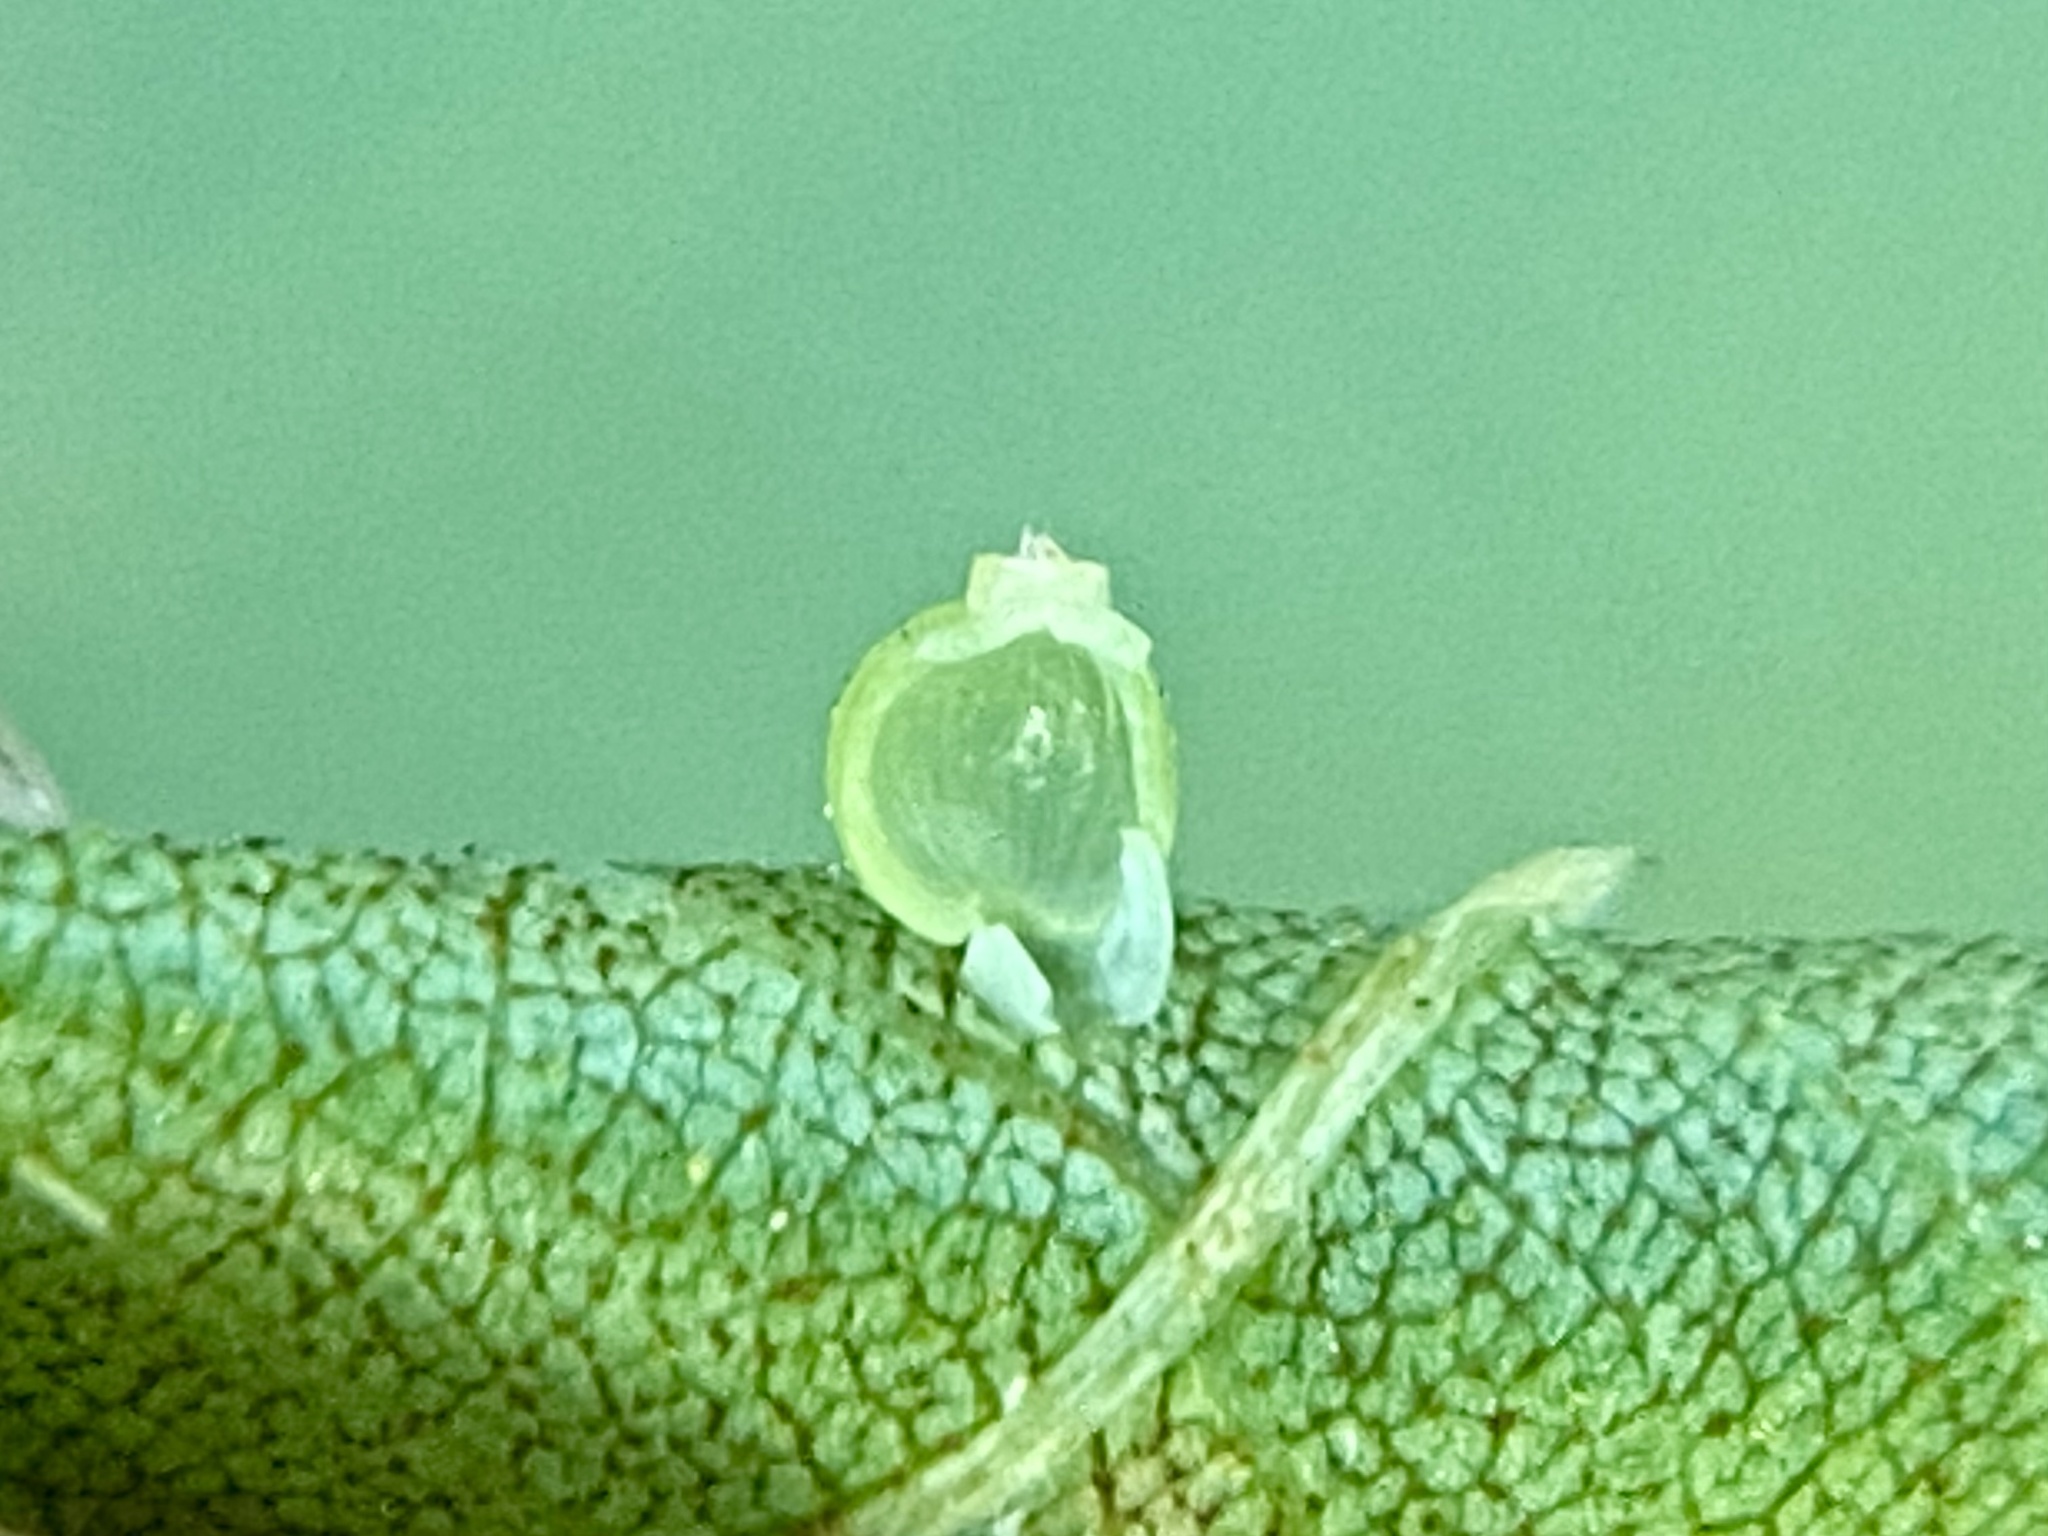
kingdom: Animalia
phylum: Arthropoda
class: Insecta
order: Diptera
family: Cecidomyiidae
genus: Caryomyia
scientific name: Caryomyia leviglobus
